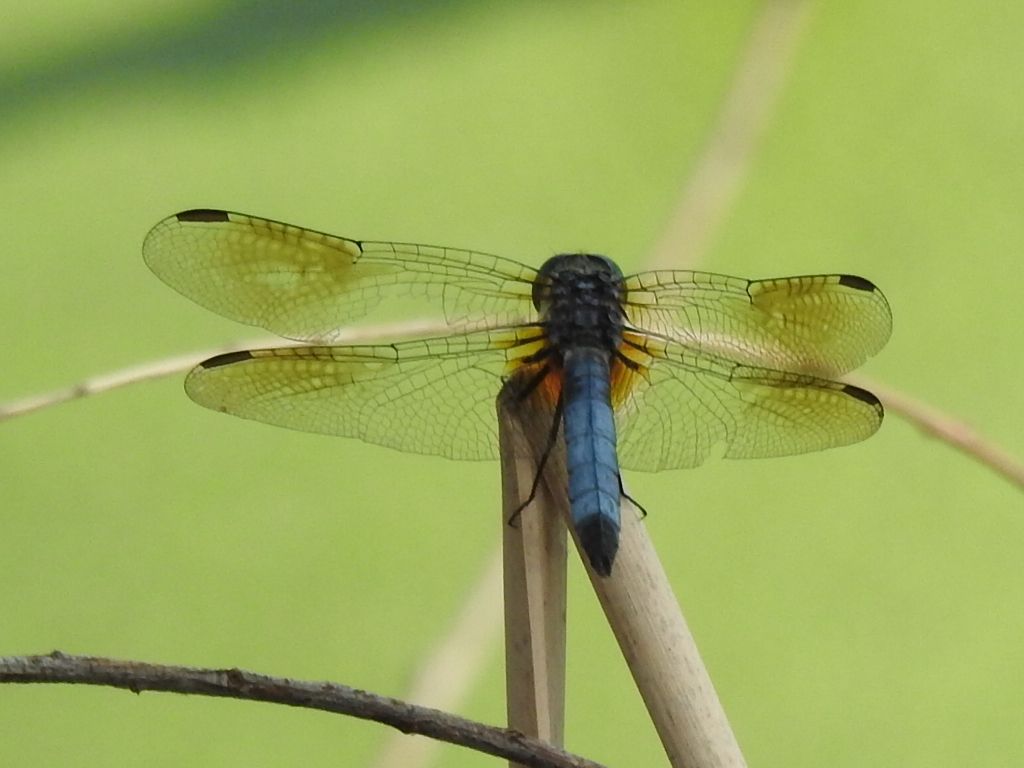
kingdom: Animalia
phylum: Arthropoda
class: Insecta
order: Odonata
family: Libellulidae
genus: Pachydiplax
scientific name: Pachydiplax longipennis
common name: Blue dasher
